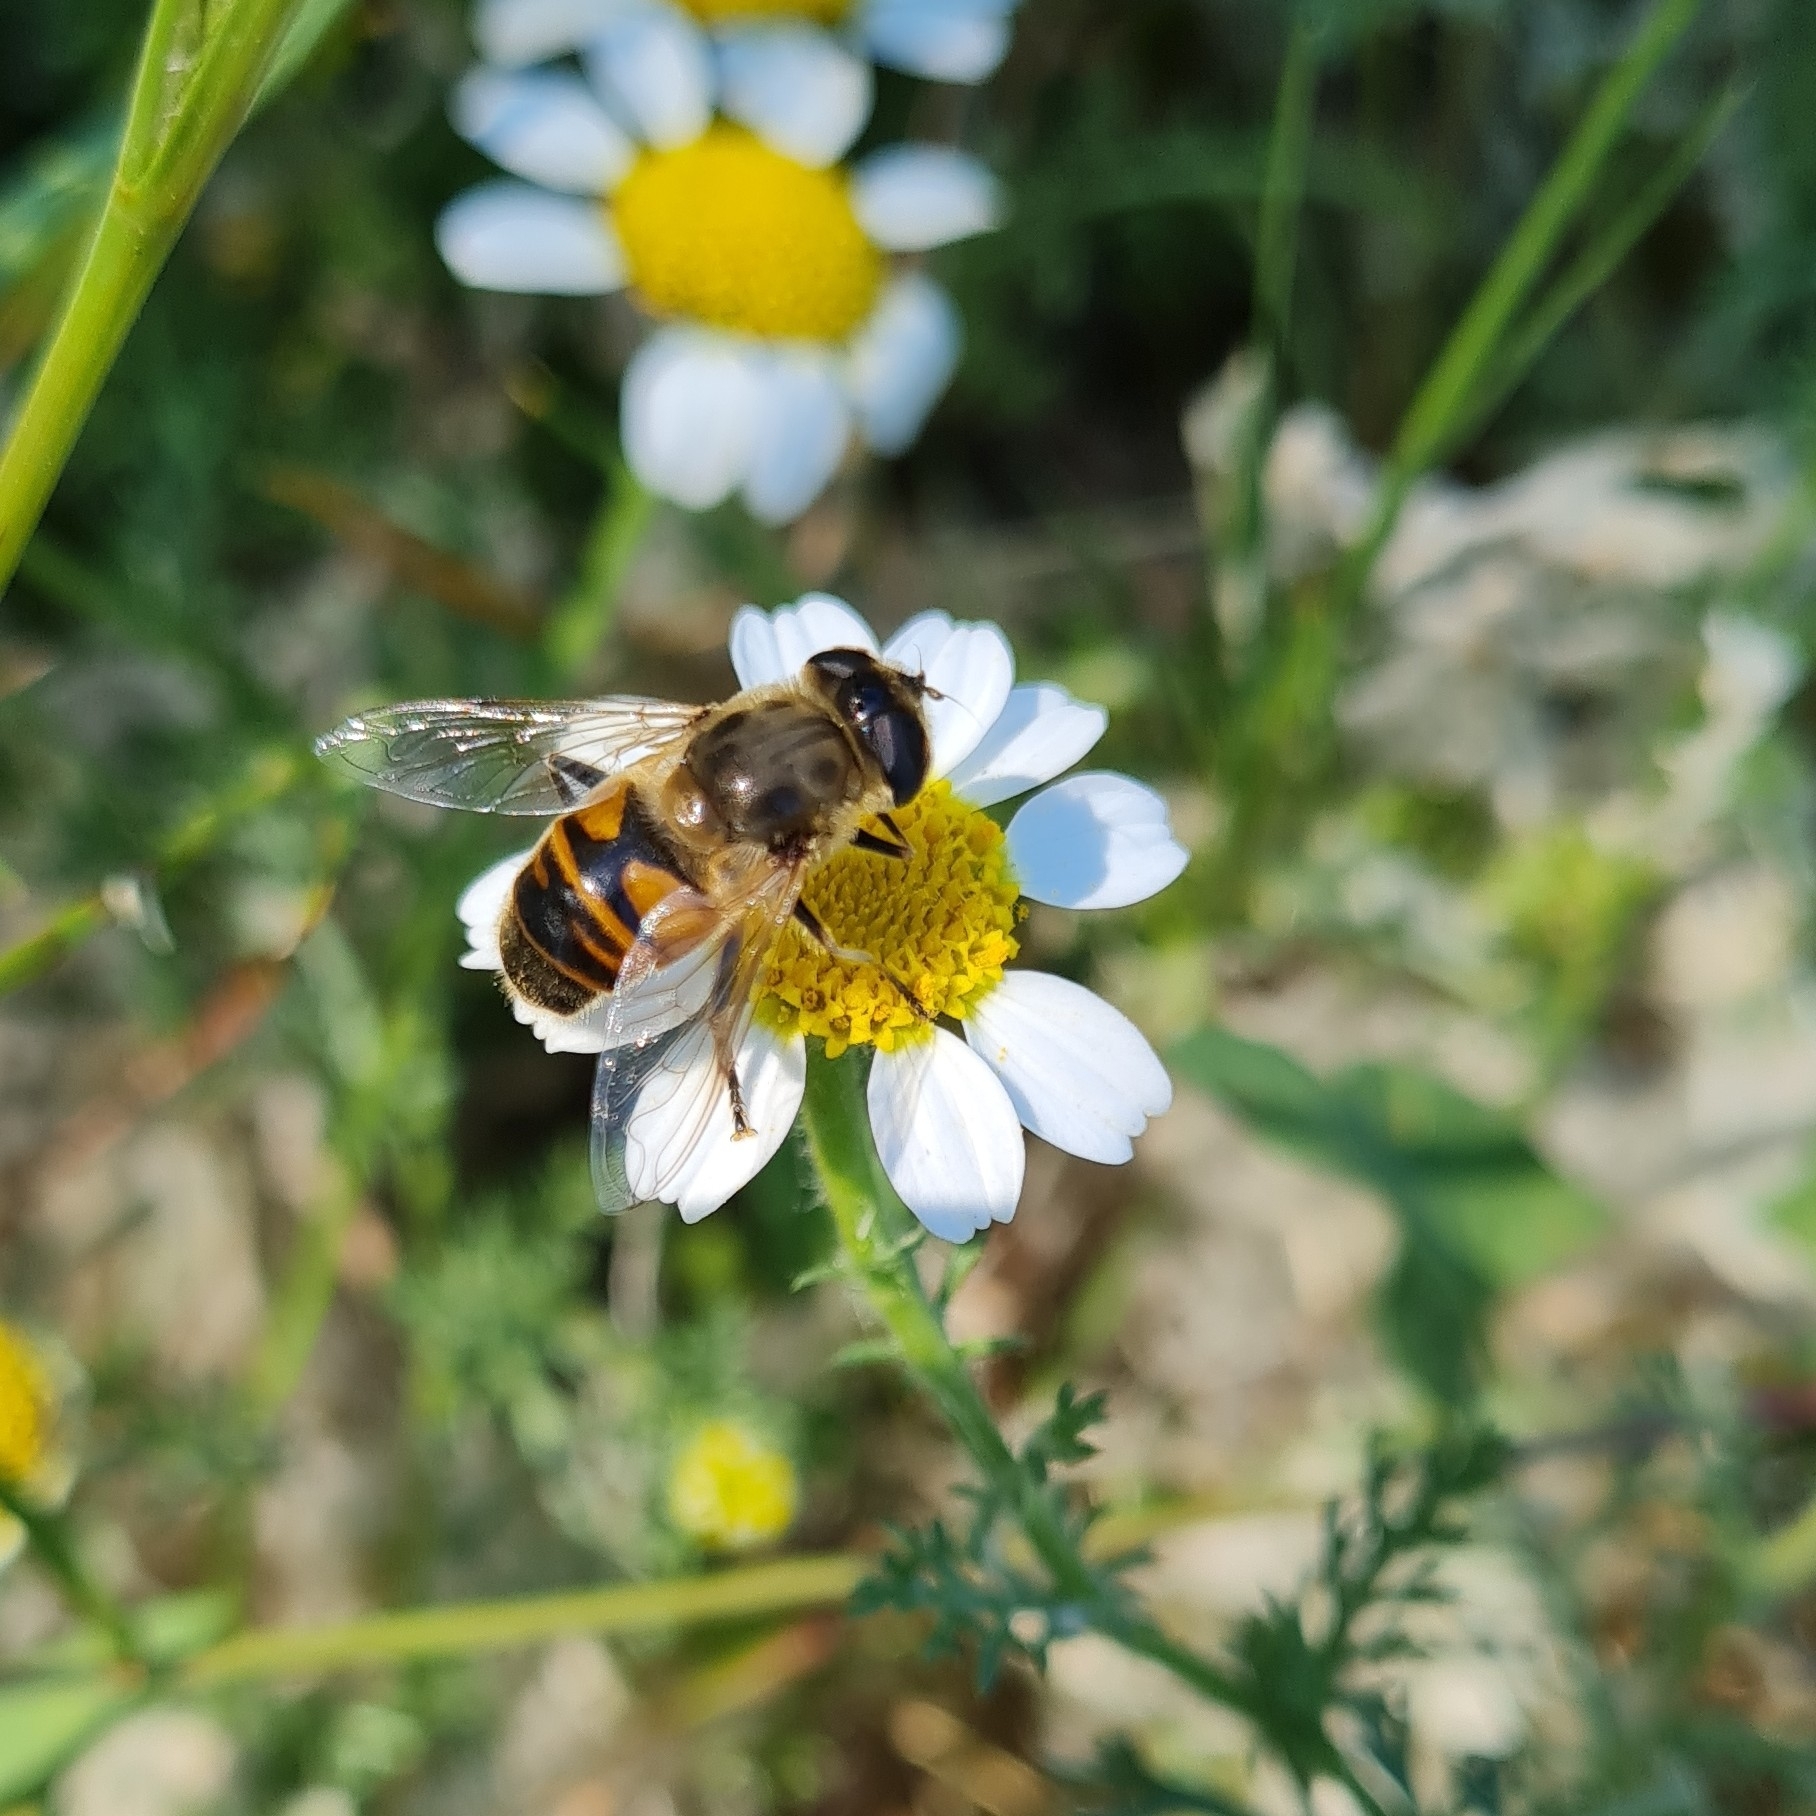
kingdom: Animalia
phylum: Arthropoda
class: Insecta
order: Diptera
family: Syrphidae
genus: Eristalis
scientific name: Eristalis tenax
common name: Drone fly
